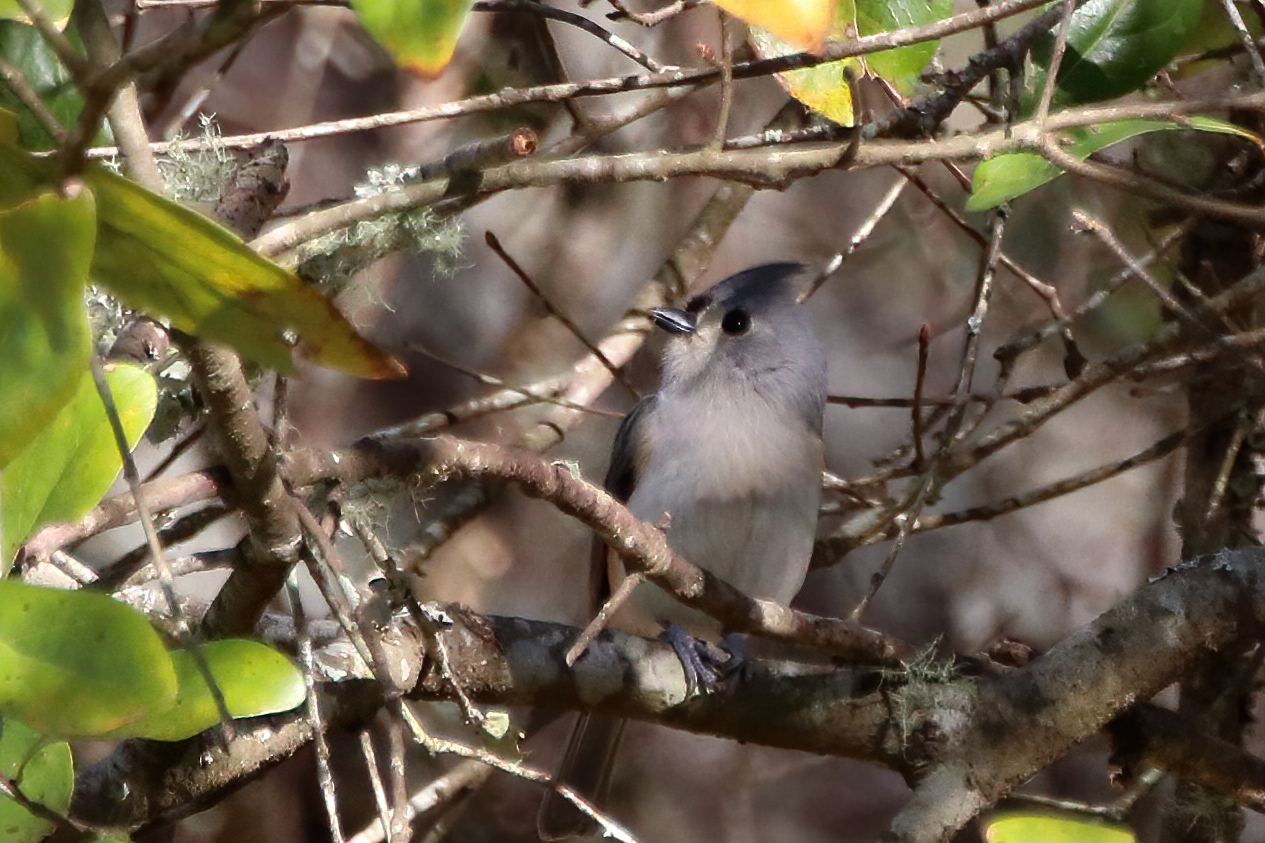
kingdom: Animalia
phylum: Chordata
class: Aves
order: Passeriformes
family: Paridae
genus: Baeolophus
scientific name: Baeolophus bicolor
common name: Tufted titmouse
